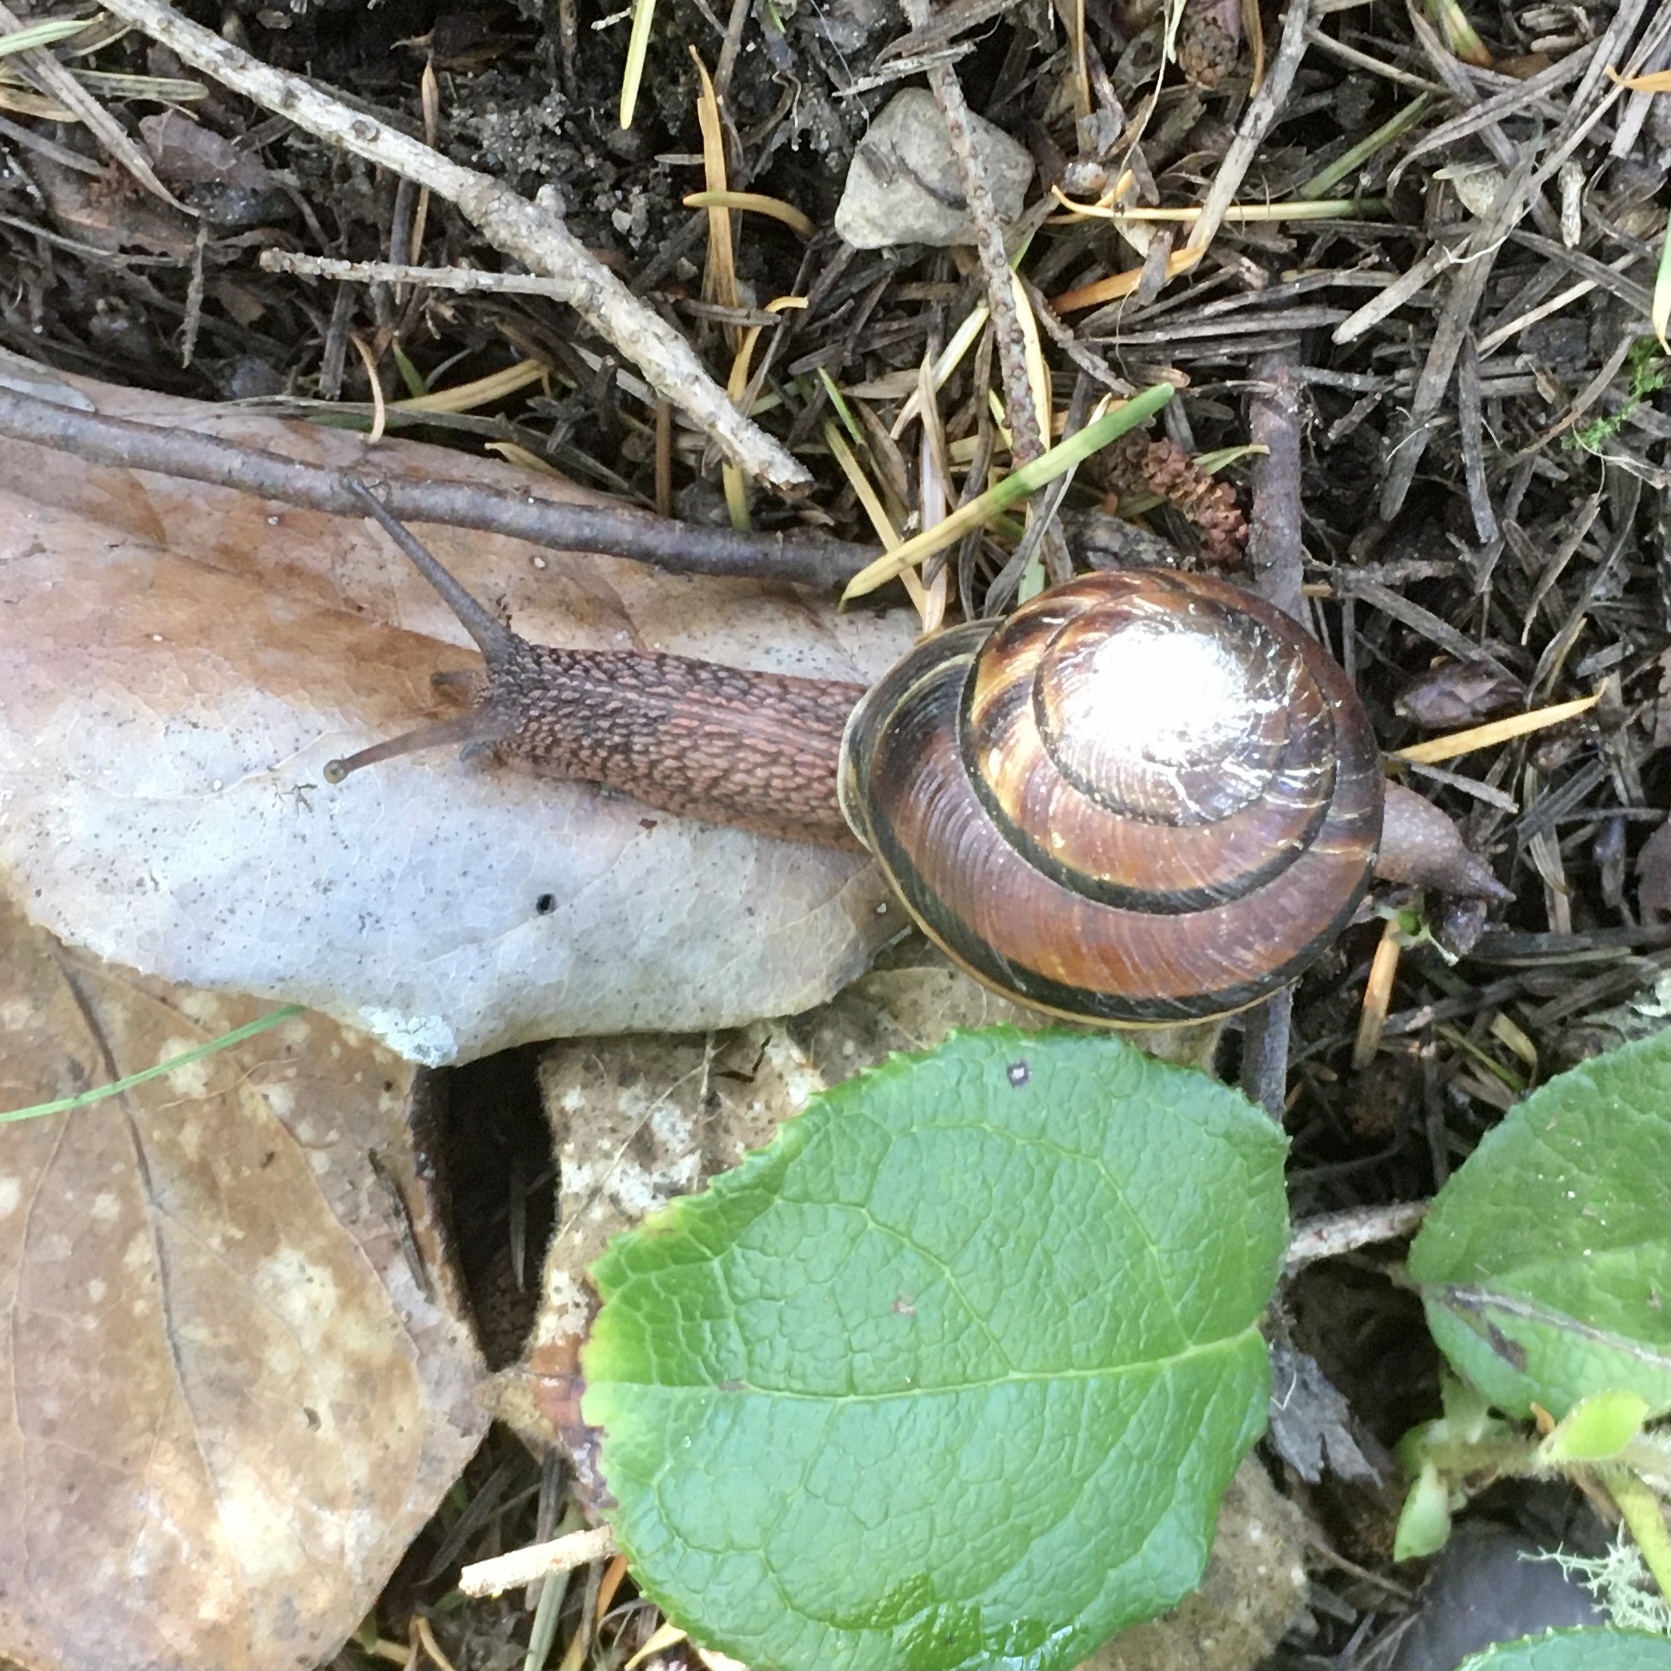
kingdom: Animalia
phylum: Mollusca
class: Gastropoda
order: Stylommatophora
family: Xanthonychidae
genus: Monadenia
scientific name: Monadenia fidelis
